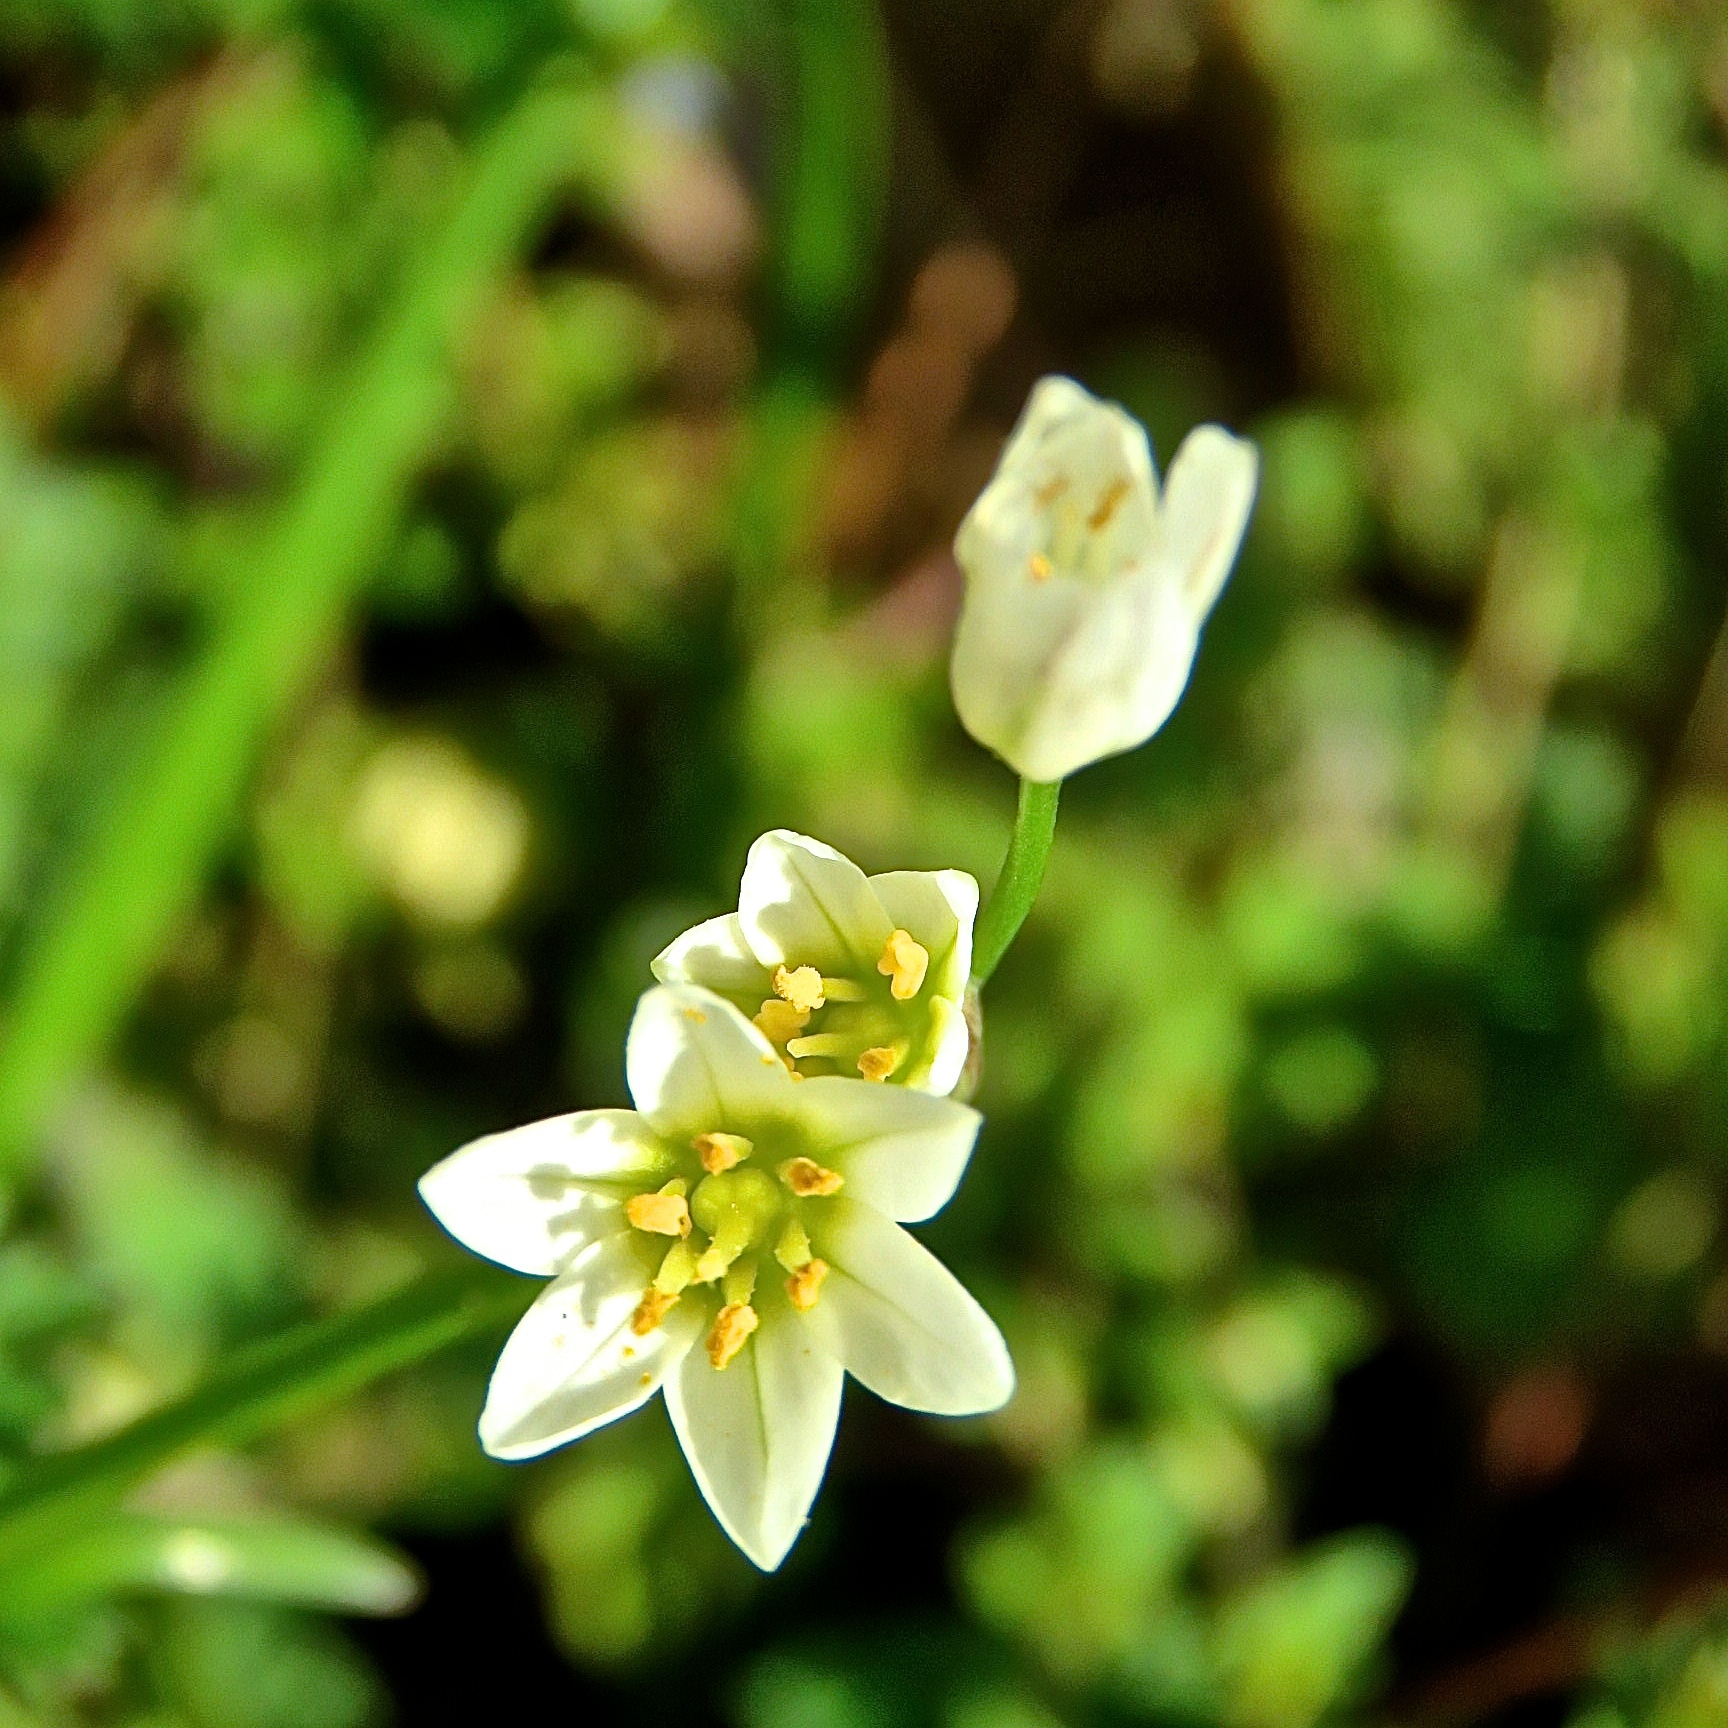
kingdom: Plantae
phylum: Tracheophyta
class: Liliopsida
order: Asparagales
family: Amaryllidaceae
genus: Nothoscordum
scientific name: Nothoscordum bivalve
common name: Crow-poison
